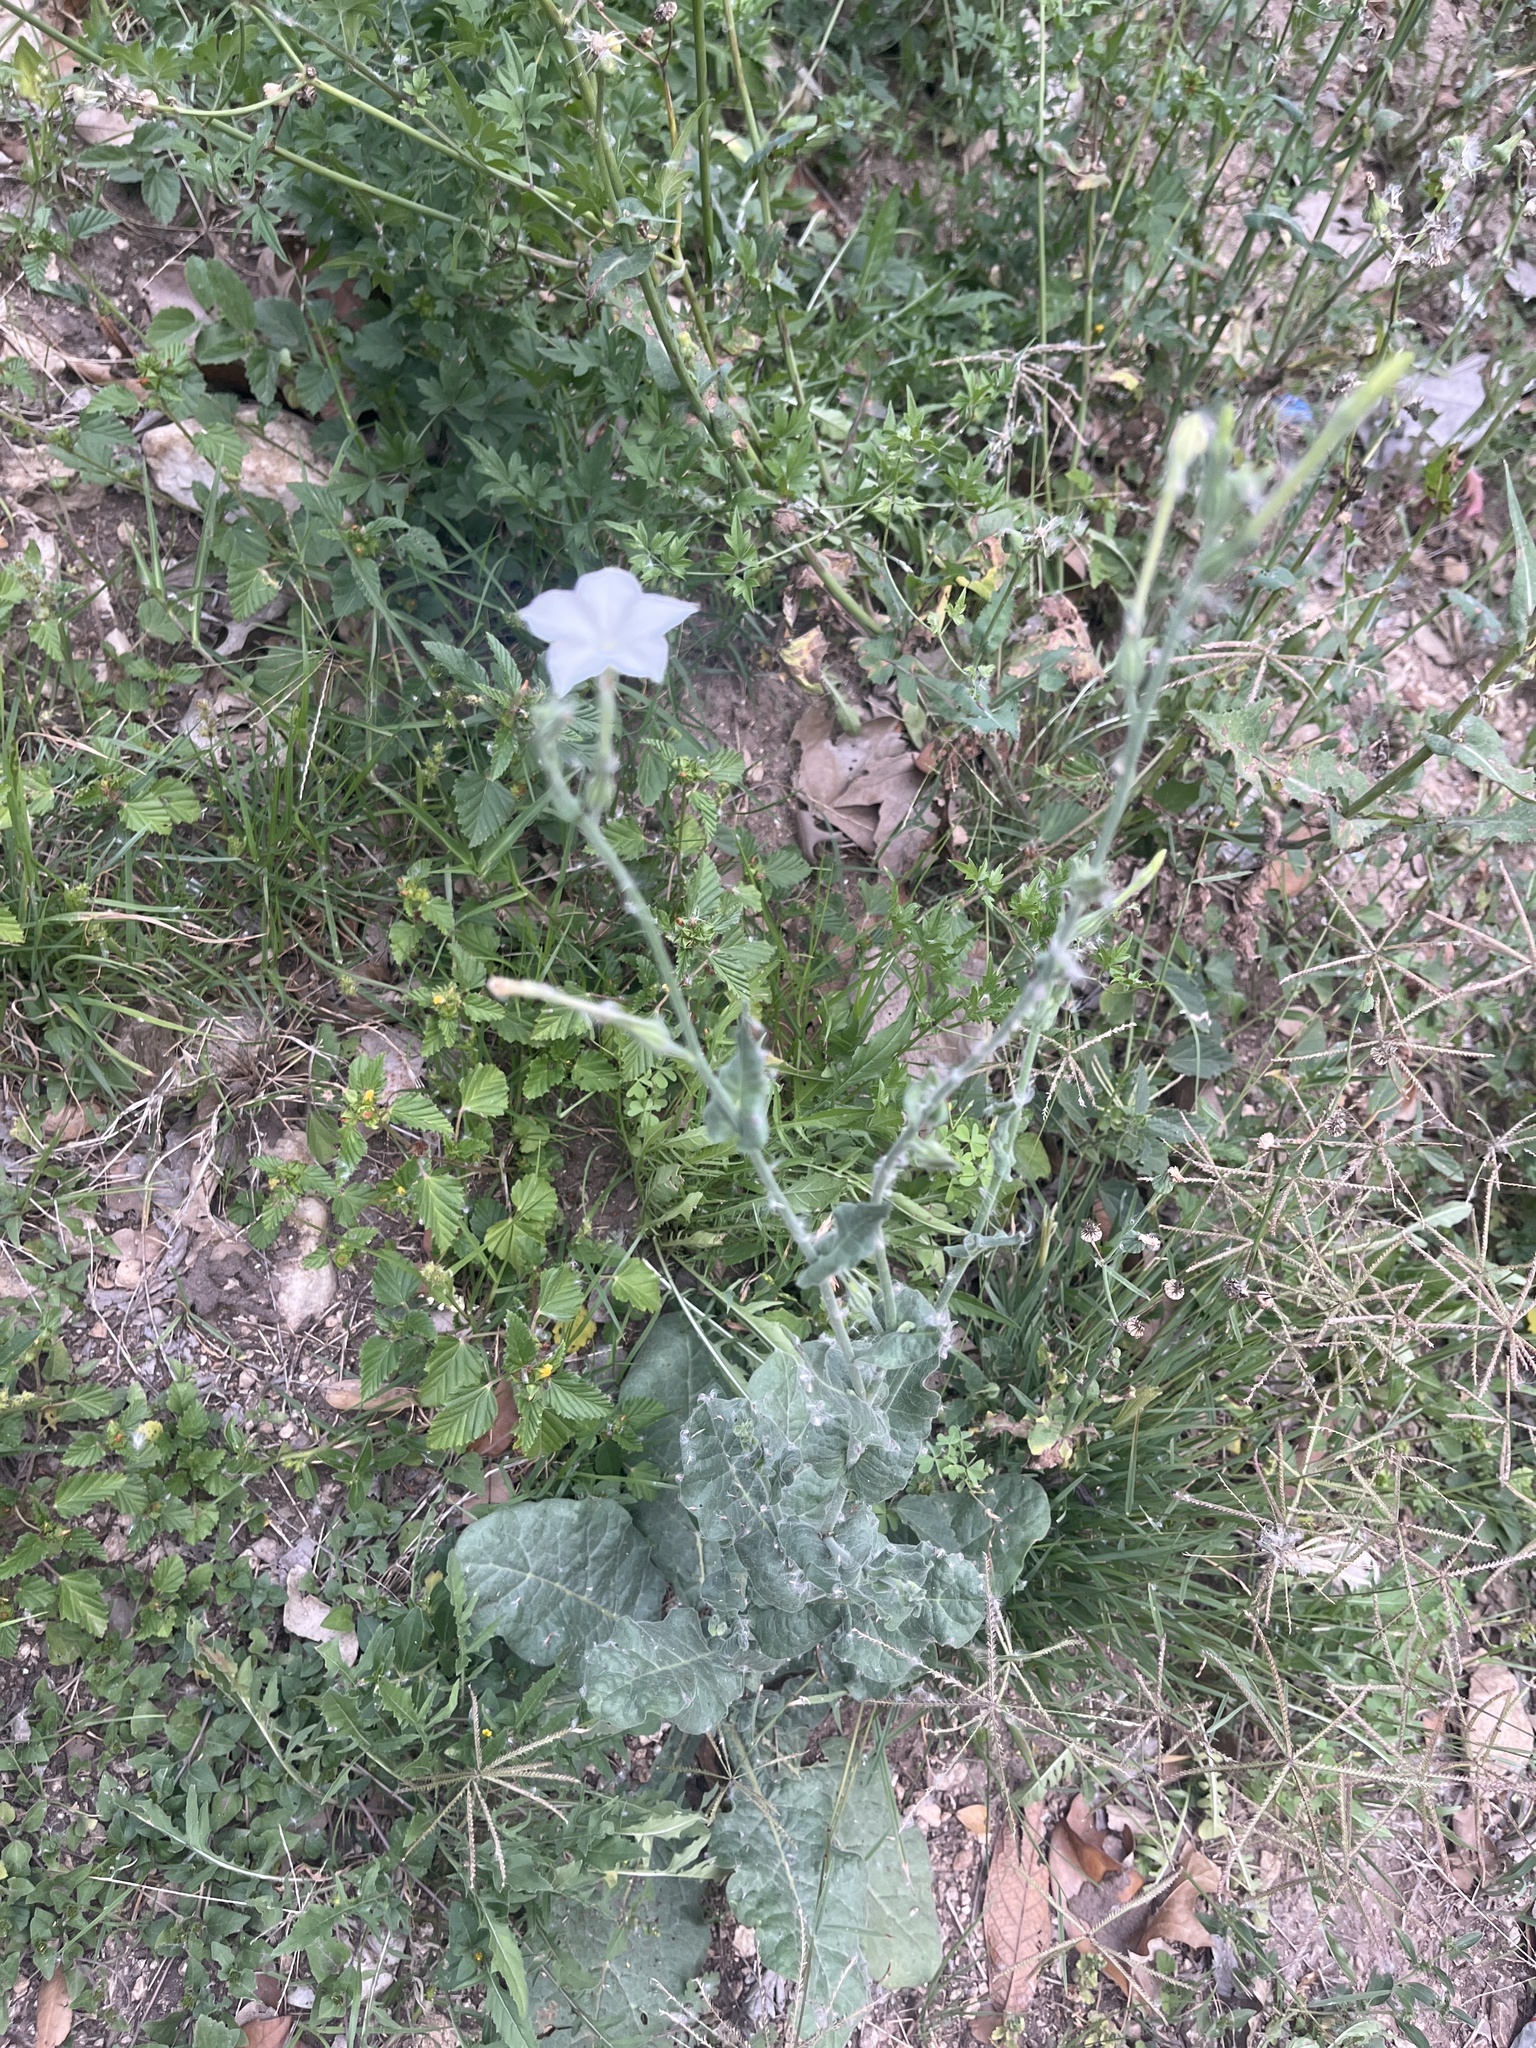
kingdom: Plantae
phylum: Tracheophyta
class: Magnoliopsida
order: Solanales
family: Solanaceae
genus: Nicotiana
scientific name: Nicotiana repanda
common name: Fiddle-leaf tobacco
